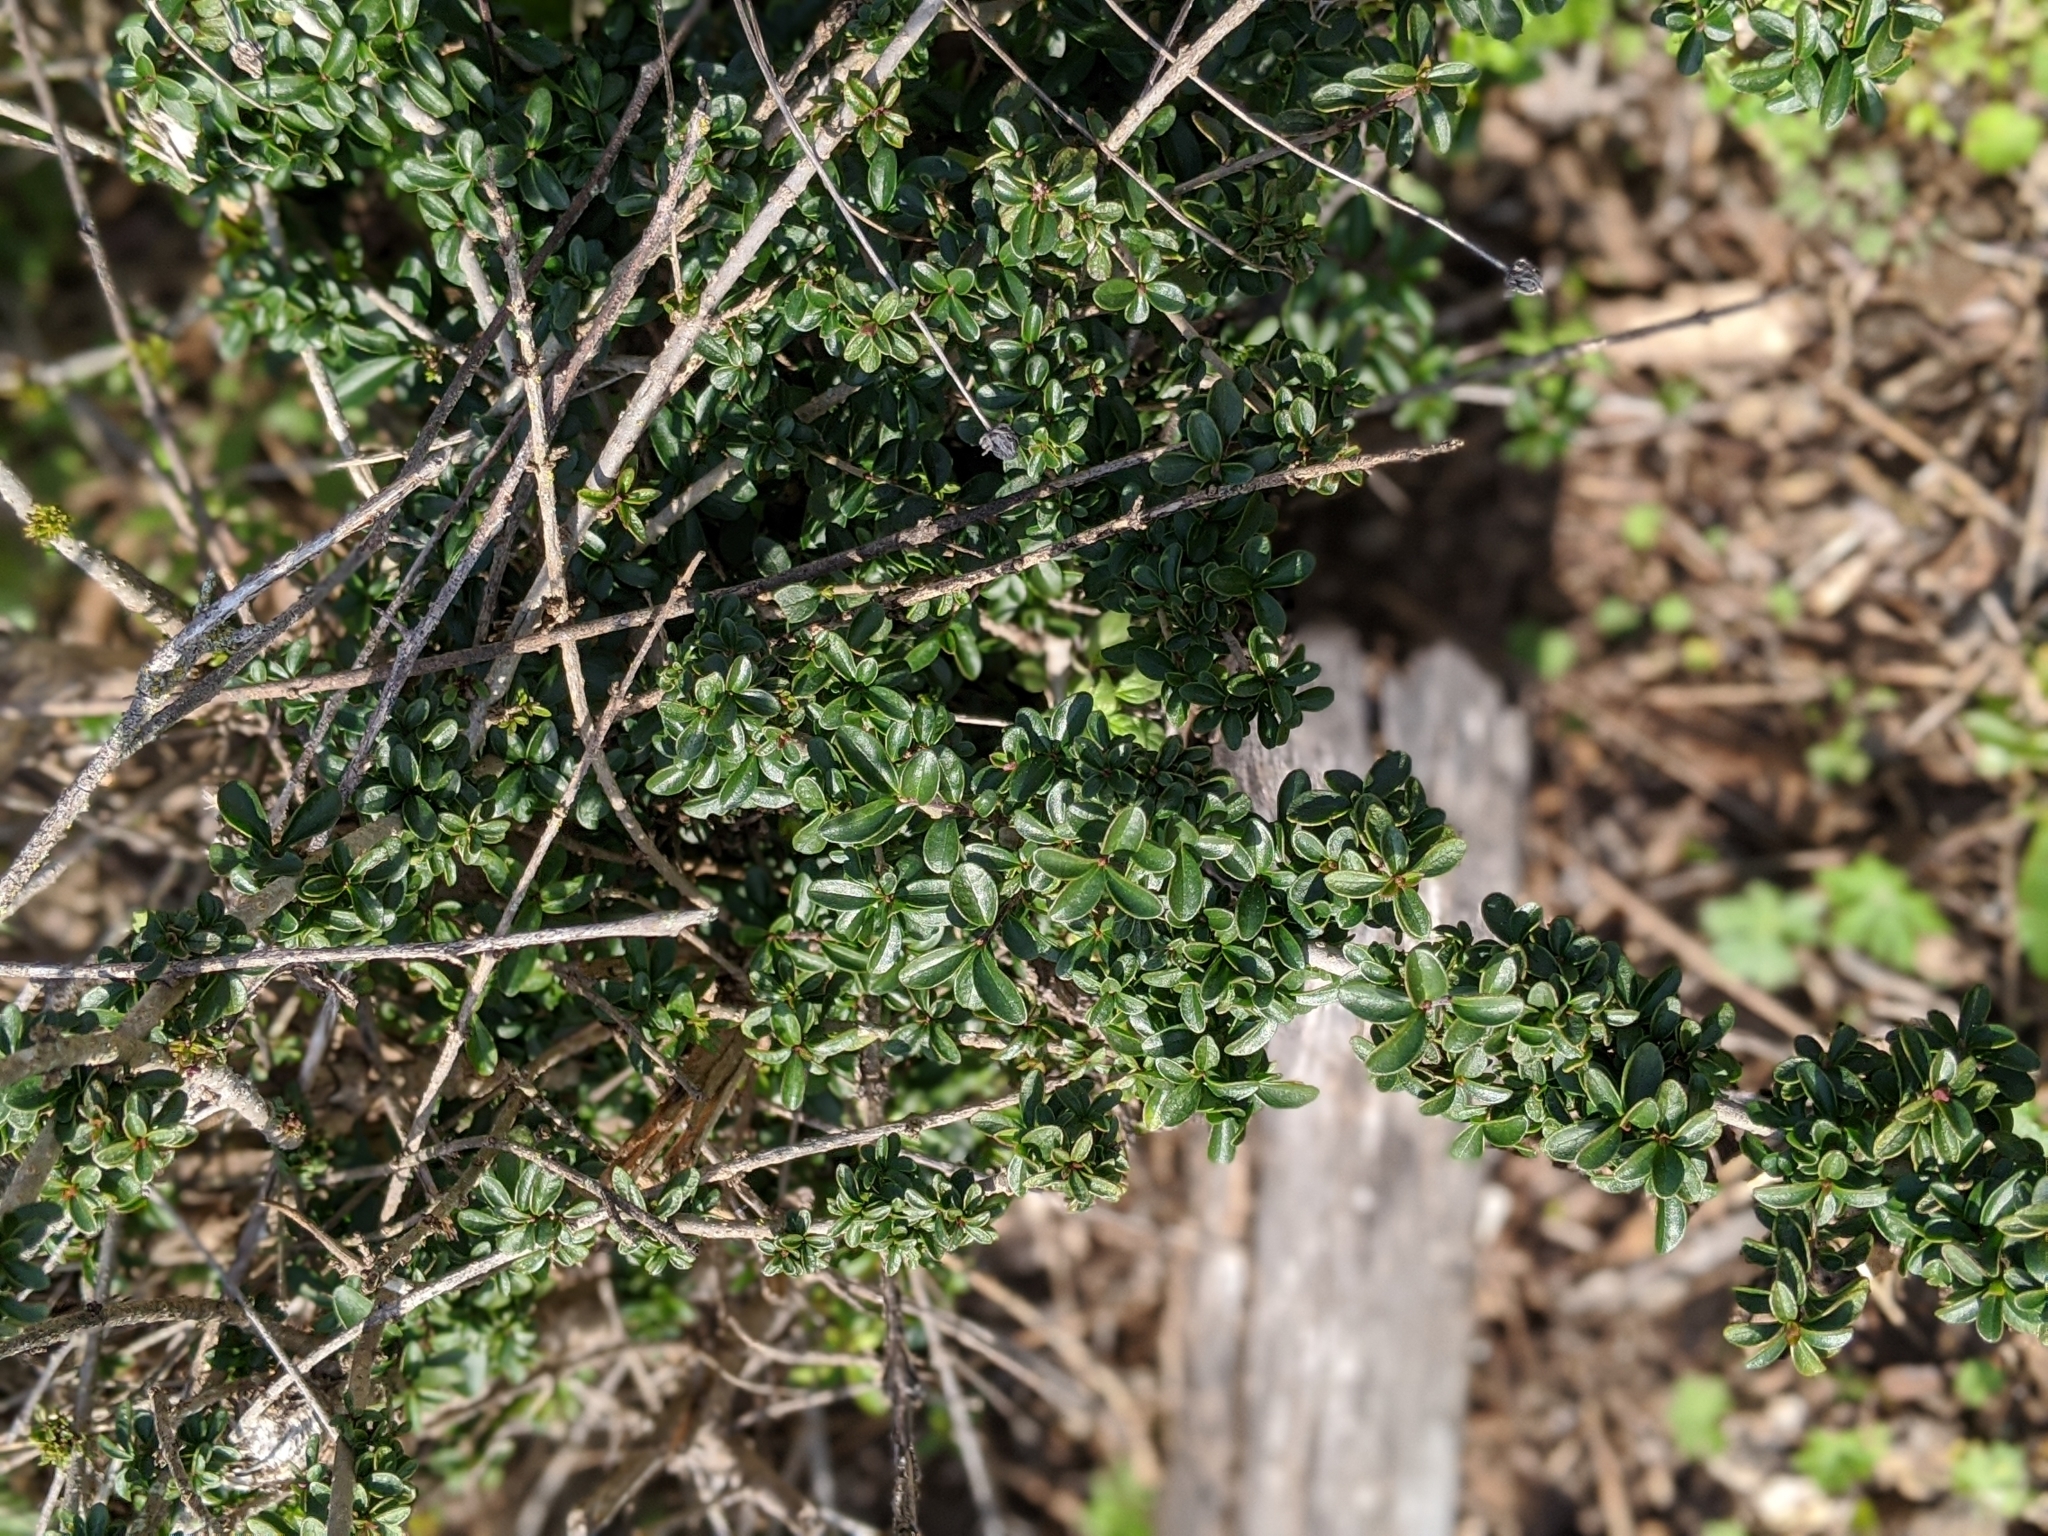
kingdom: Plantae
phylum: Tracheophyta
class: Magnoliopsida
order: Lamiales
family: Oleaceae
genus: Ligustrum
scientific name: Ligustrum quihoui
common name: Waxyleaf privet
